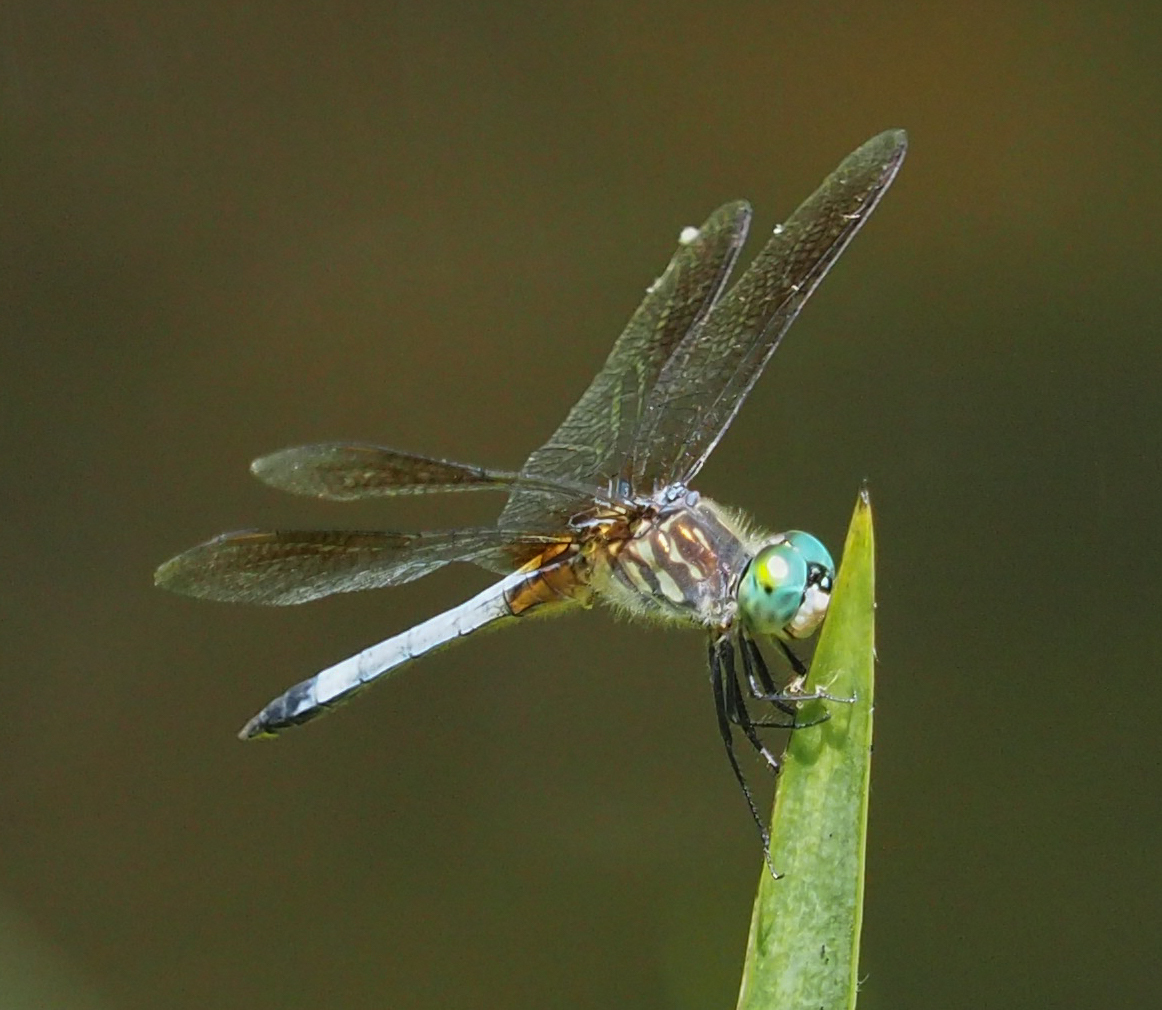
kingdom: Animalia
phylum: Arthropoda
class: Insecta
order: Odonata
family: Libellulidae
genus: Pachydiplax
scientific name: Pachydiplax longipennis
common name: Blue dasher
